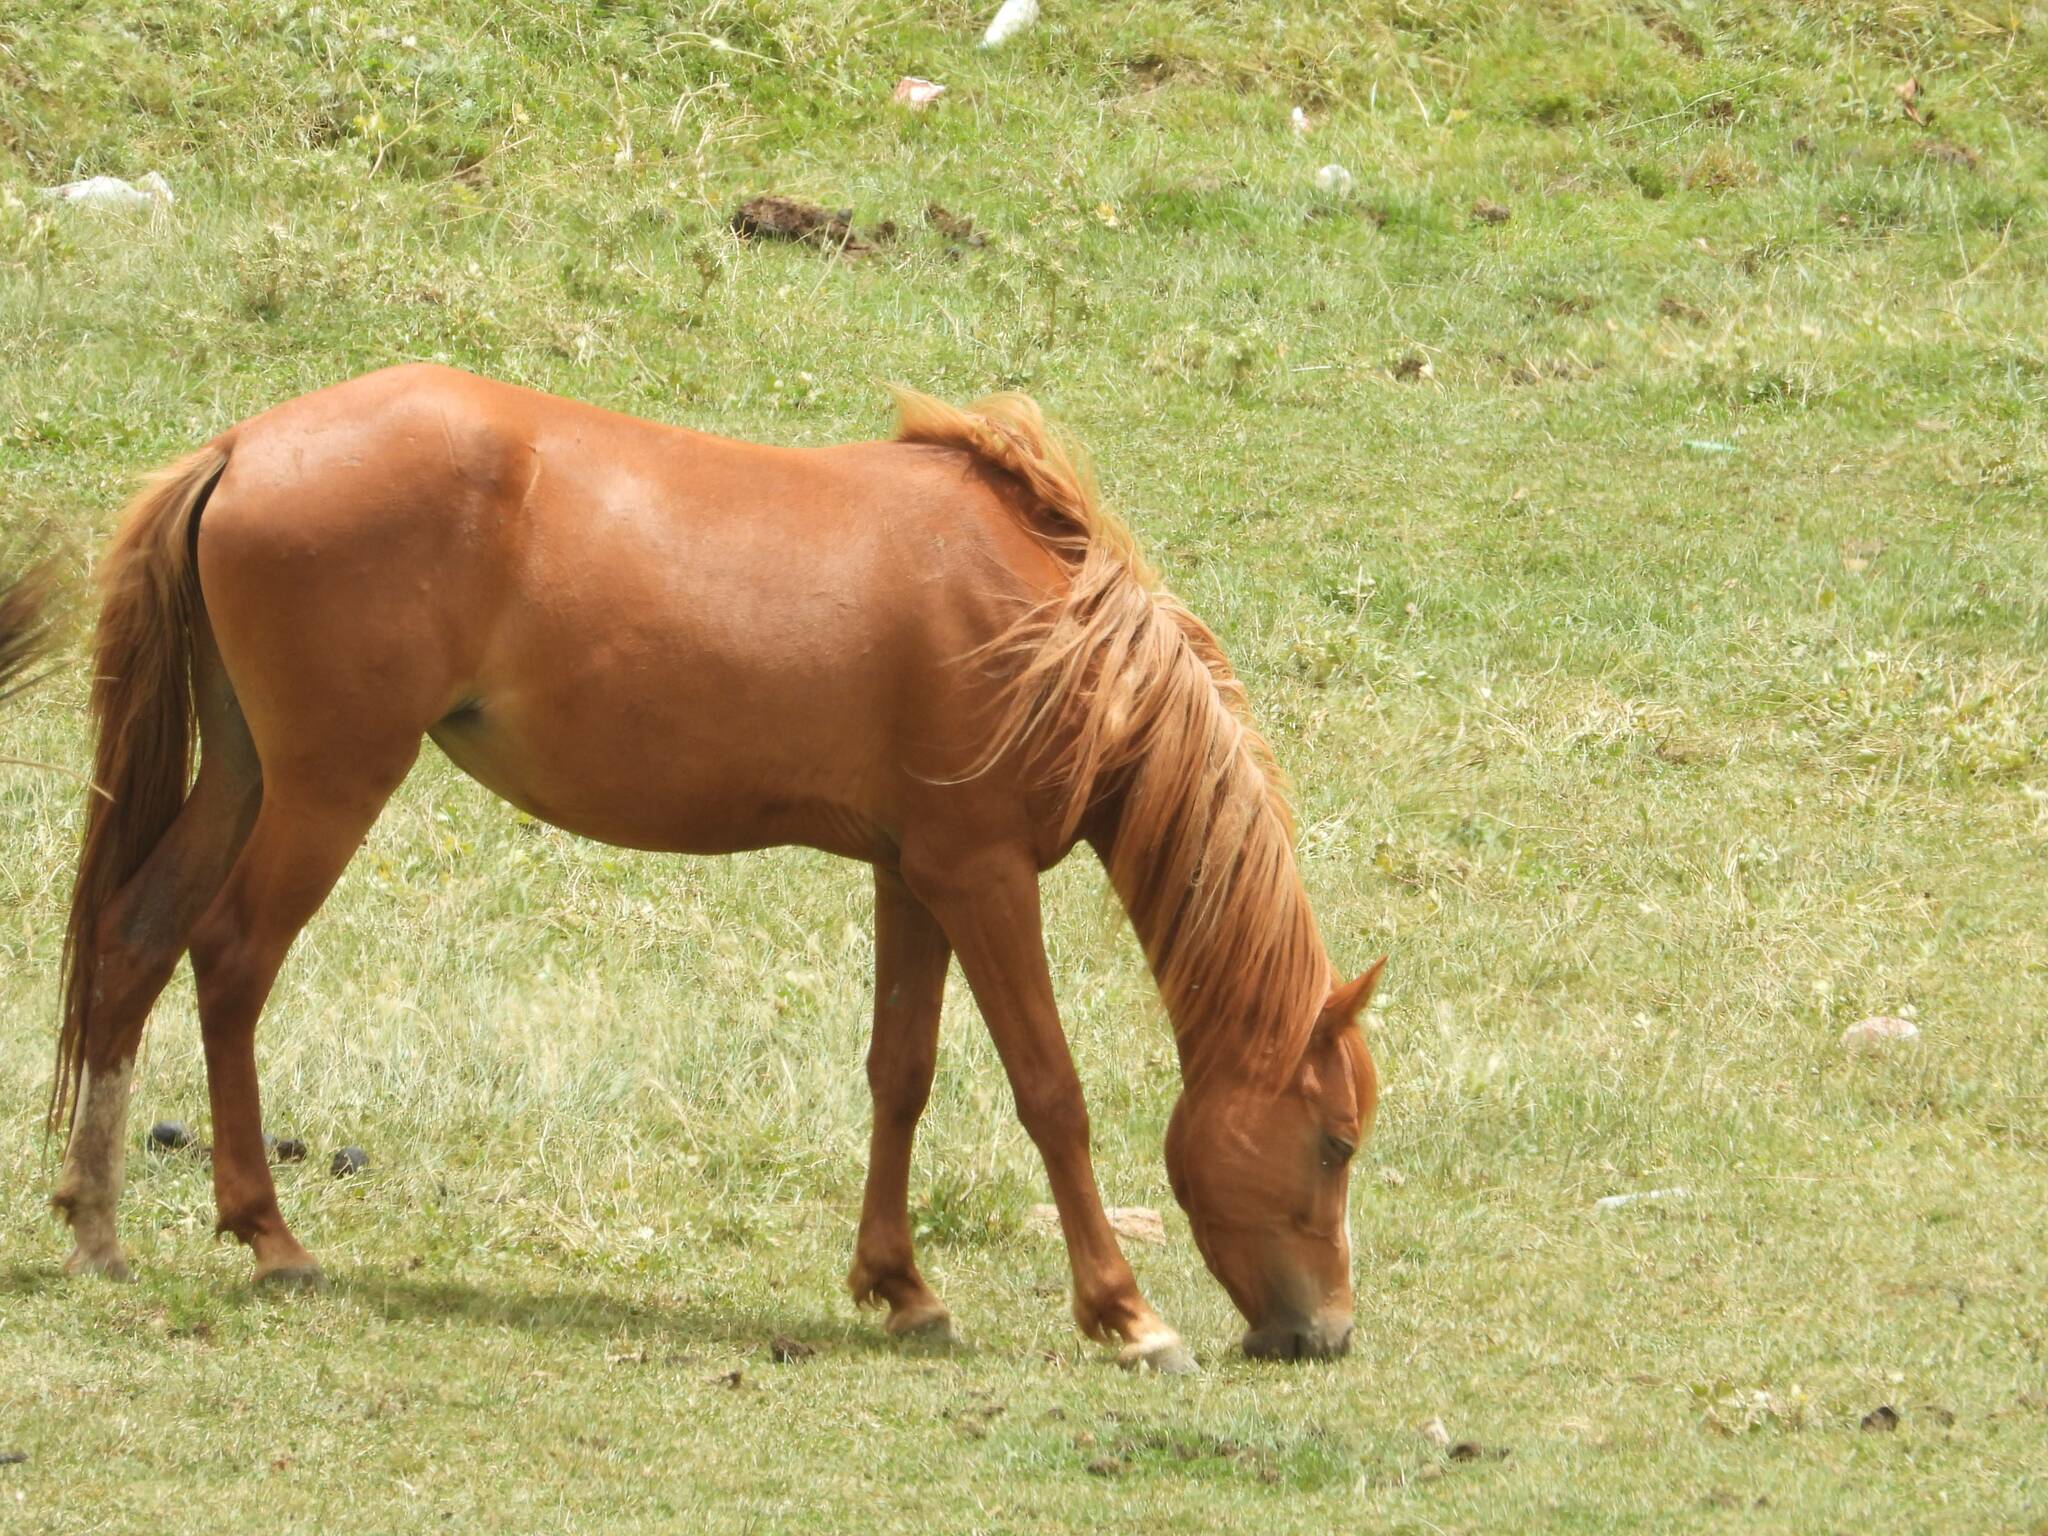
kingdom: Animalia
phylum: Chordata
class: Mammalia
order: Perissodactyla
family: Equidae
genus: Equus
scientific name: Equus caballus
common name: Horse
